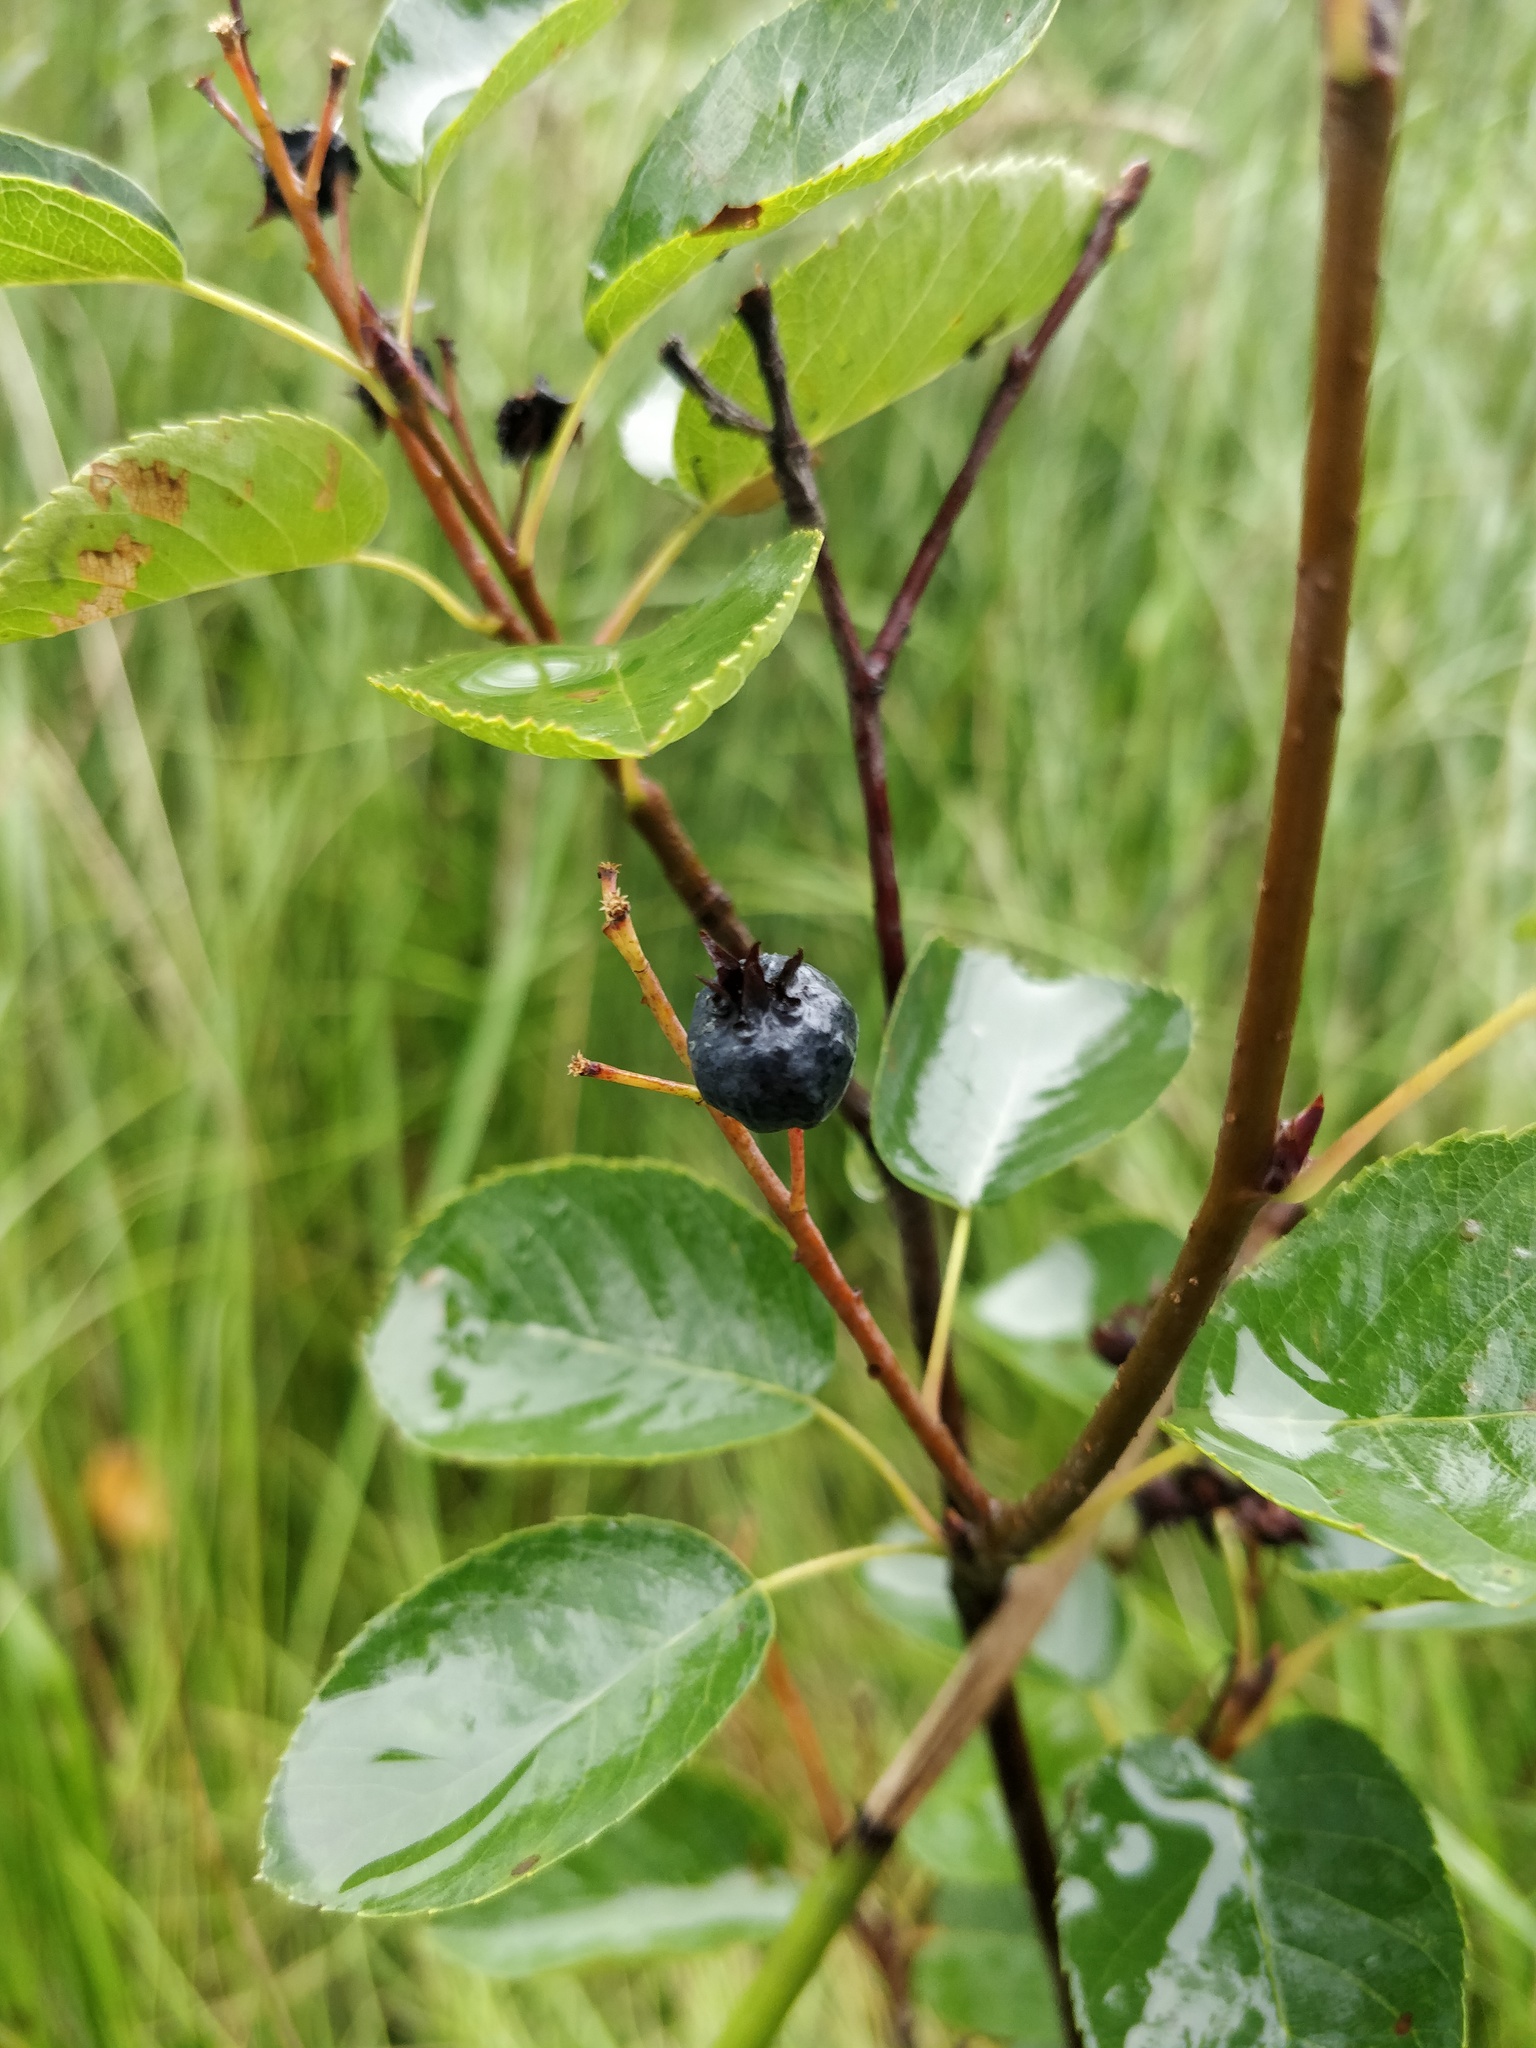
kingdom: Plantae
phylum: Tracheophyta
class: Magnoliopsida
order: Rosales
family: Rosaceae
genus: Amelanchier
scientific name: Amelanchier
